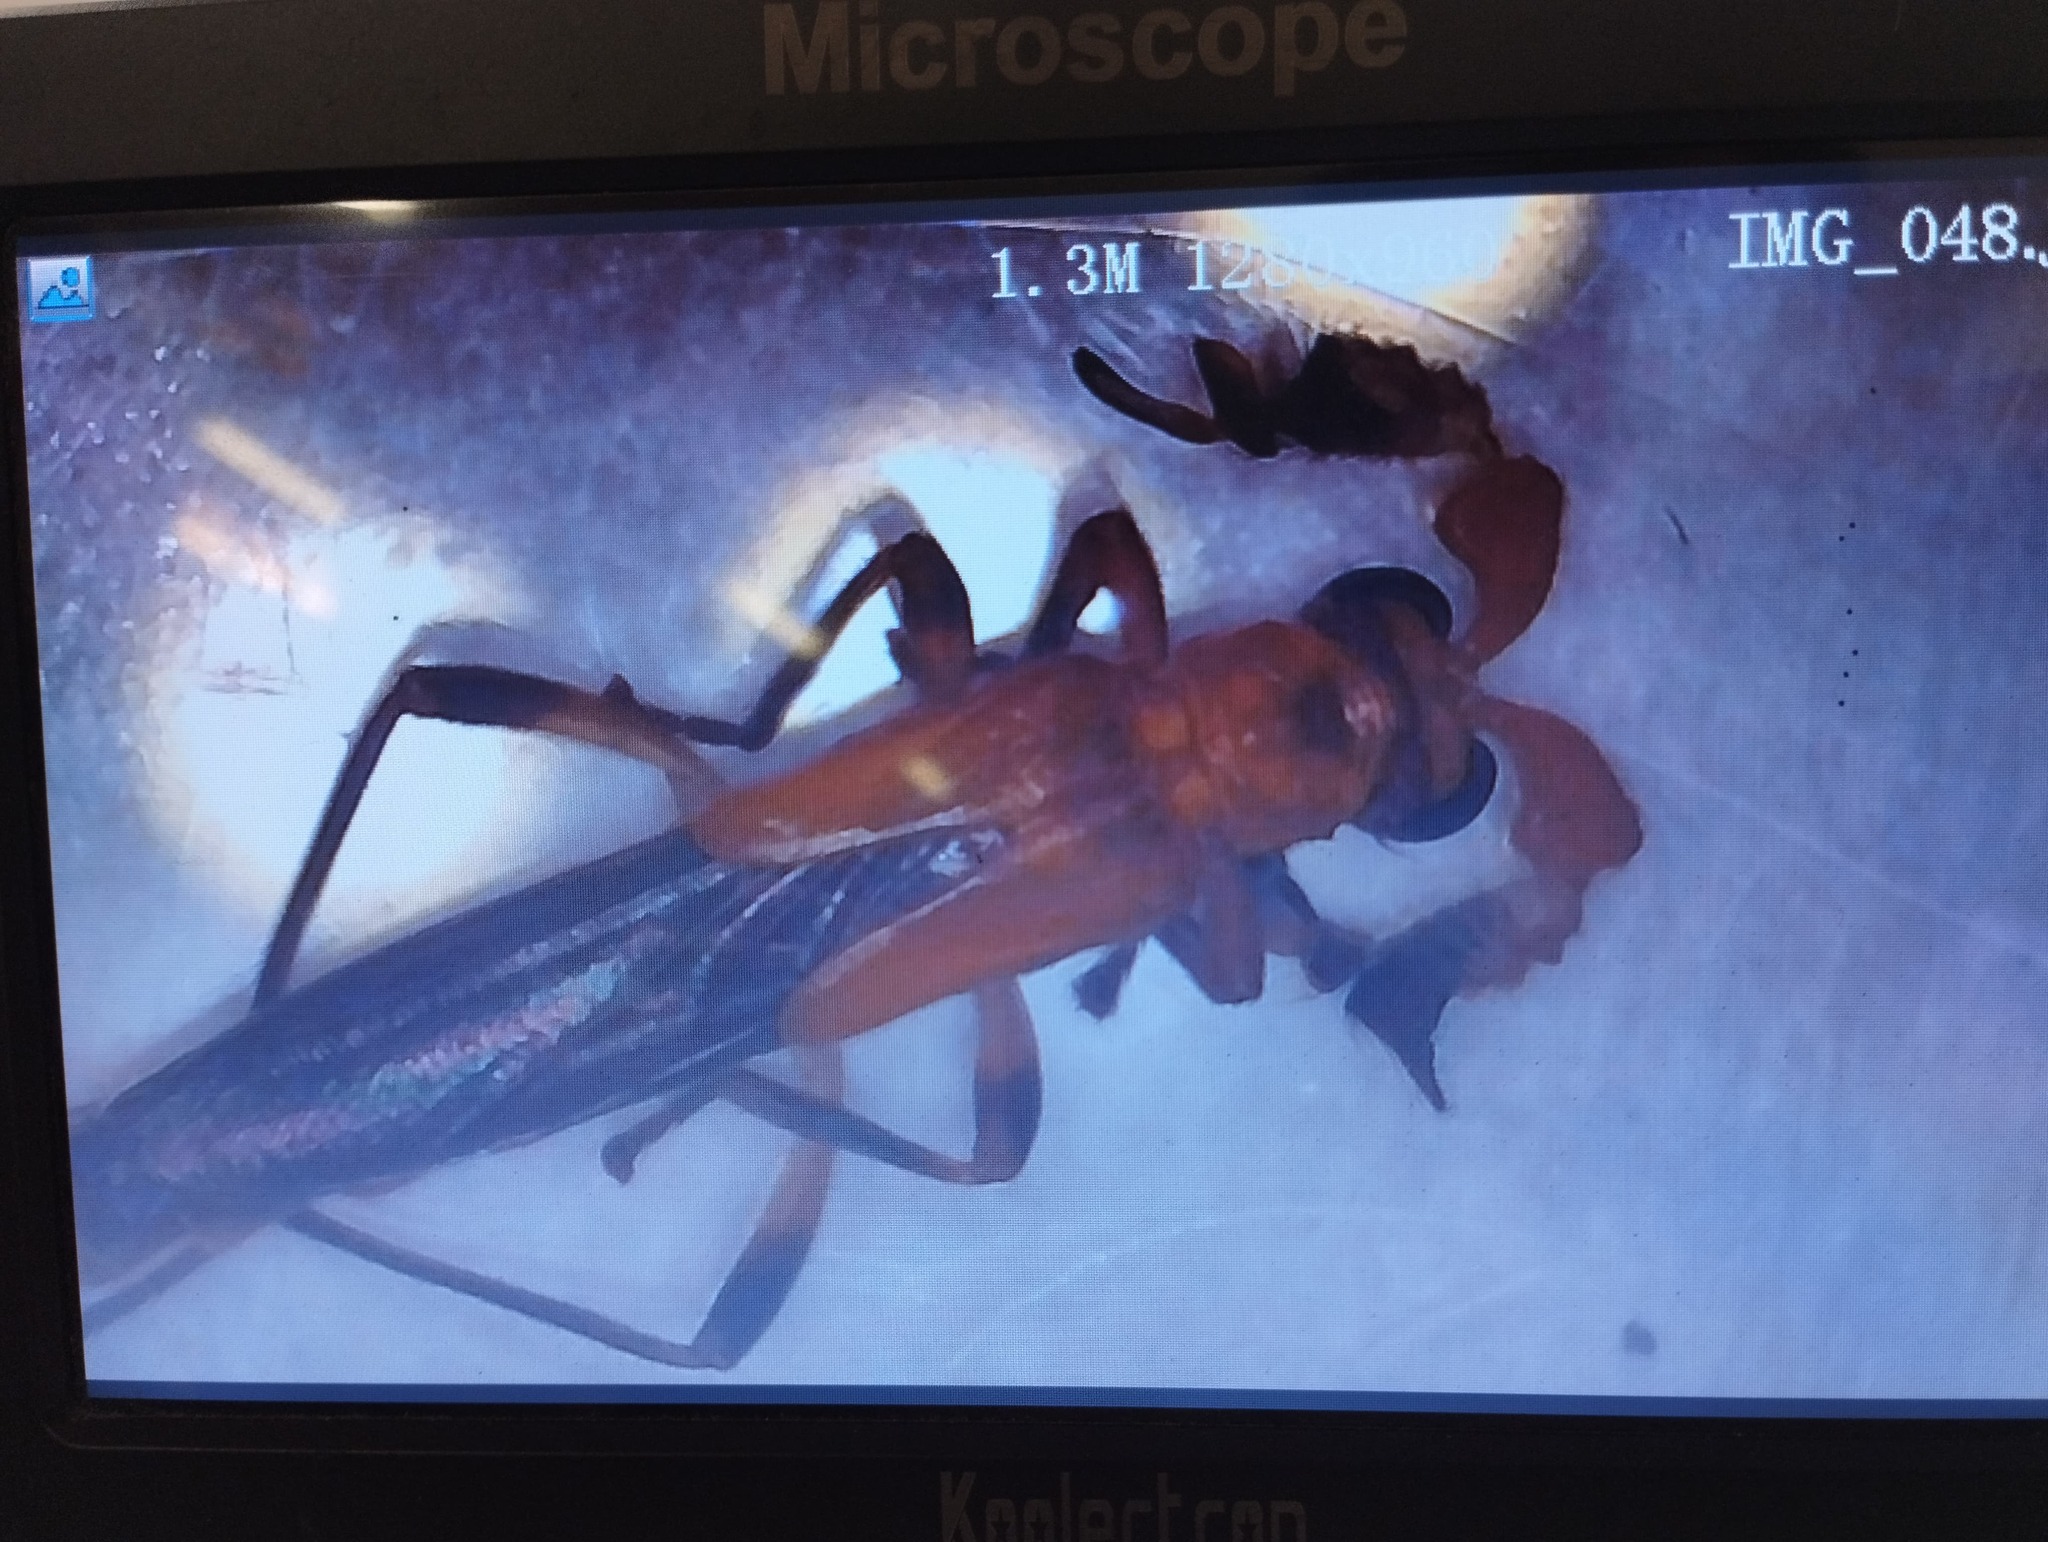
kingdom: Animalia
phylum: Arthropoda
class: Insecta
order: Coleoptera
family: Cantharidae
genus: Pseudocerocoma
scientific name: Pseudocerocoma
